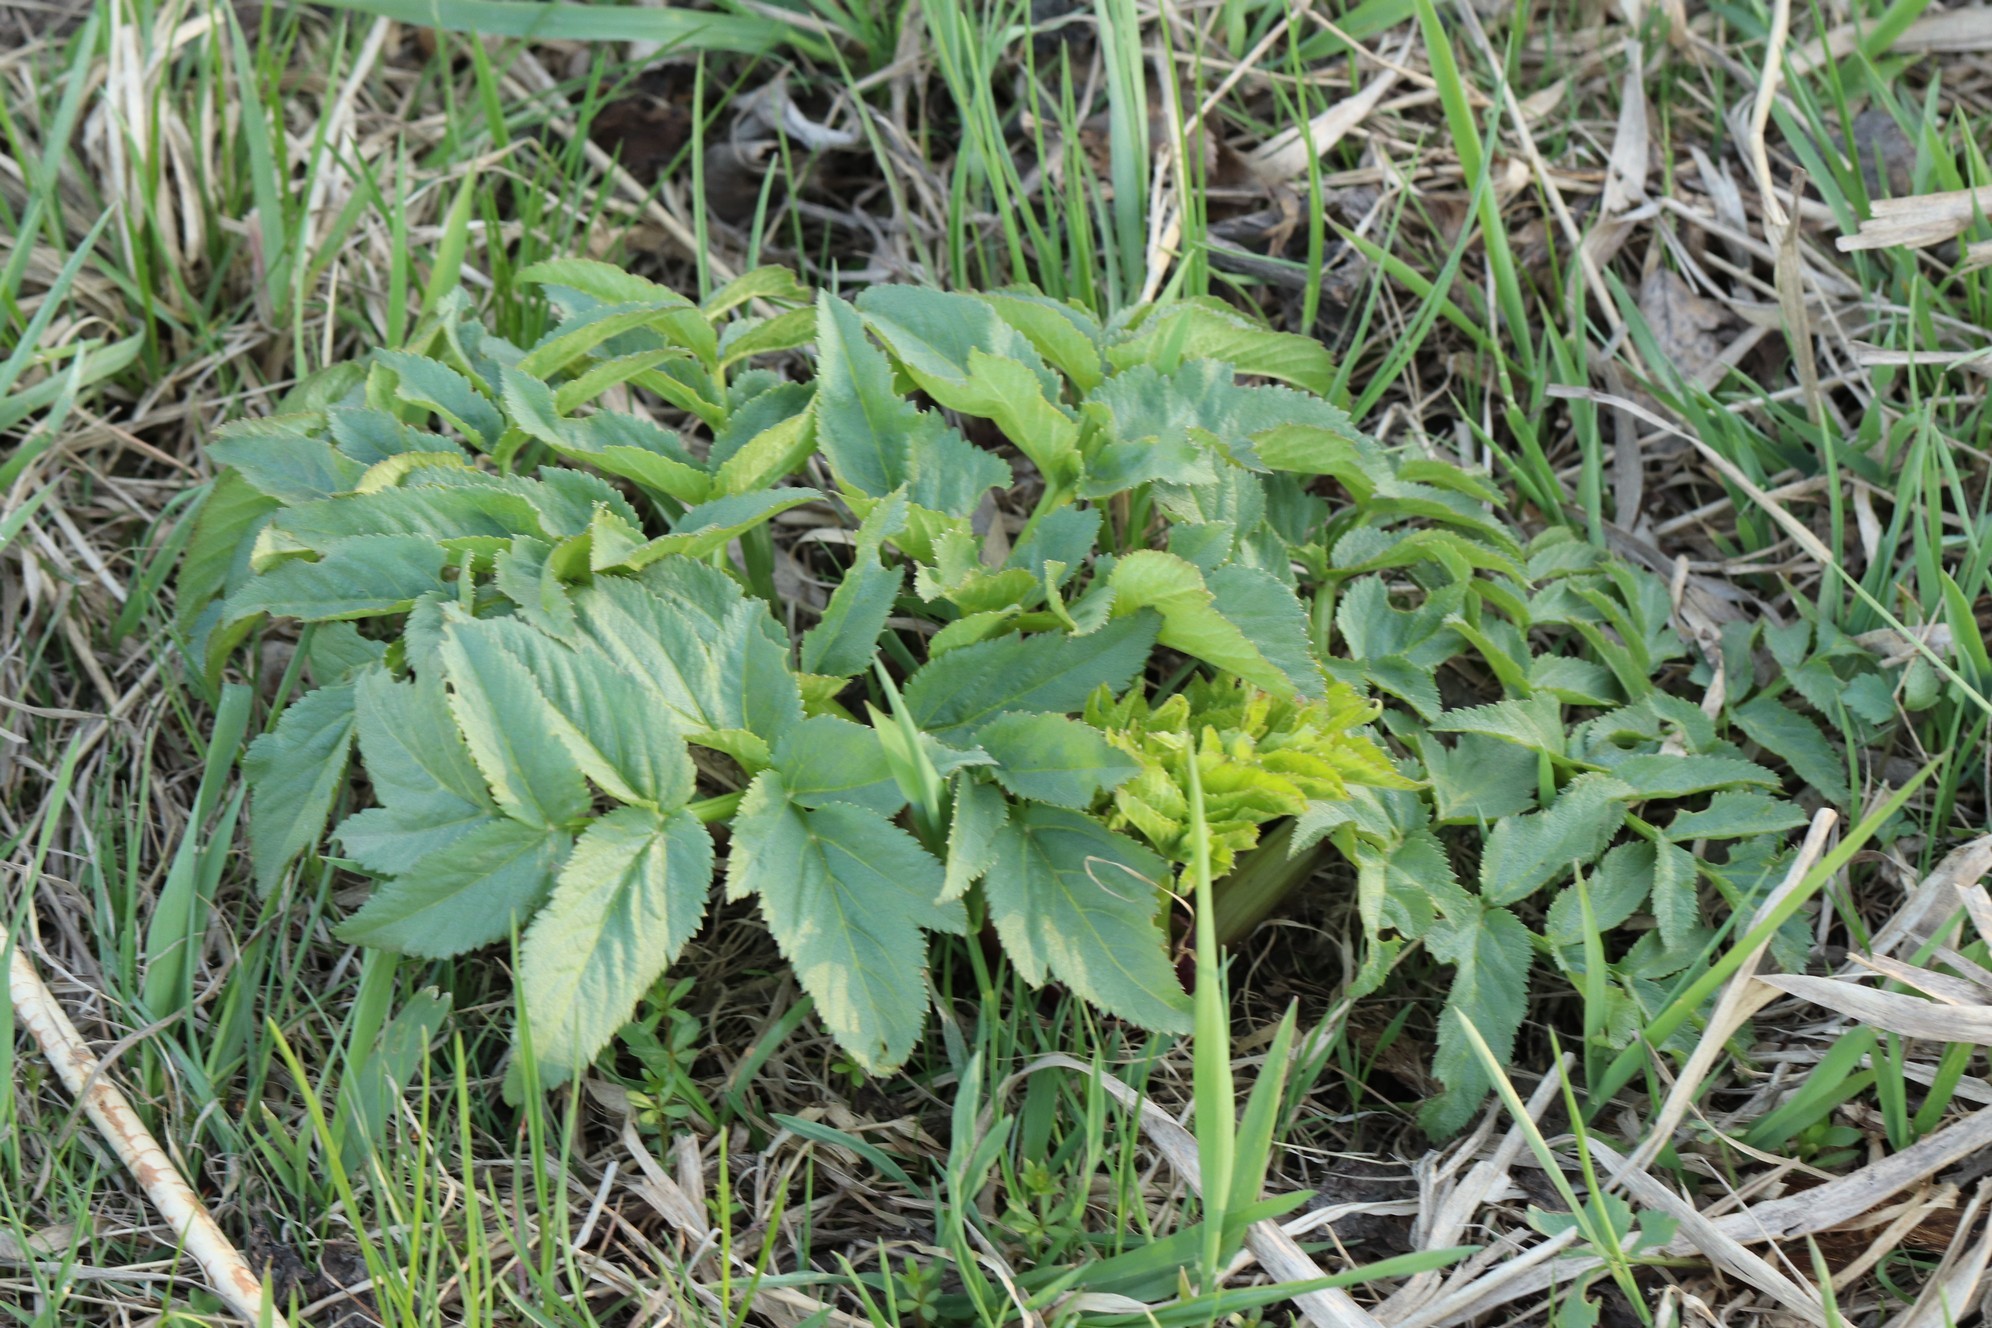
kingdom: Plantae
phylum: Tracheophyta
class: Magnoliopsida
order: Apiales
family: Apiaceae
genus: Angelica
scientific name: Angelica decurrens
